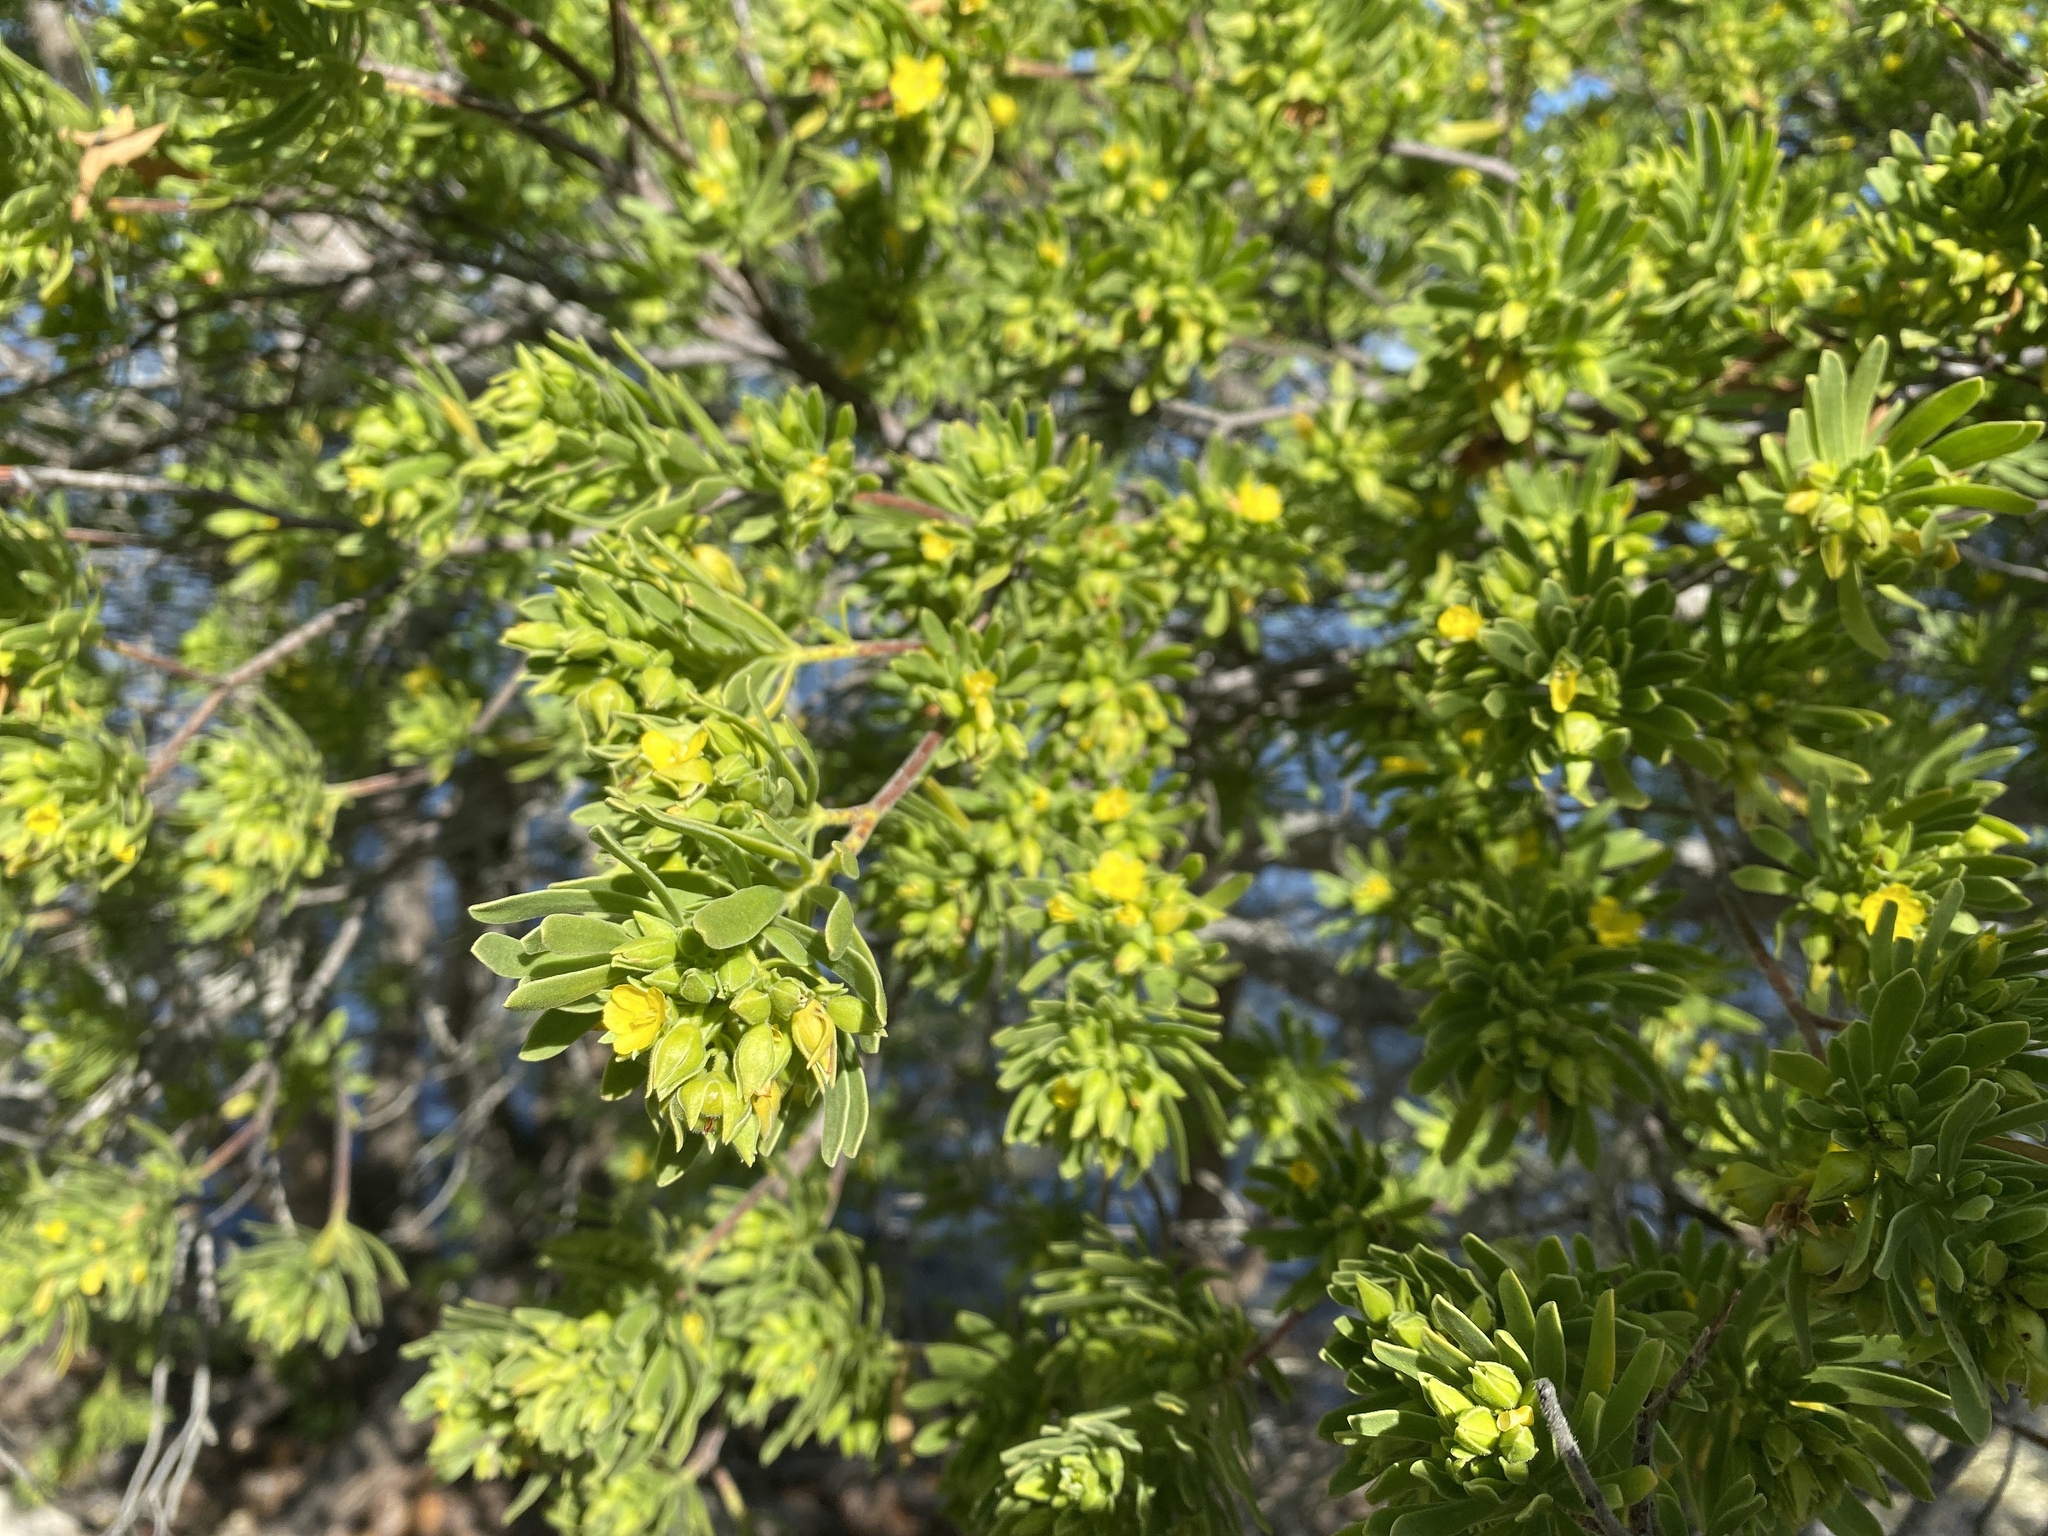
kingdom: Plantae
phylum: Tracheophyta
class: Magnoliopsida
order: Fabales
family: Surianaceae
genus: Suriana
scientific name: Suriana maritima
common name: Bay-cedar
